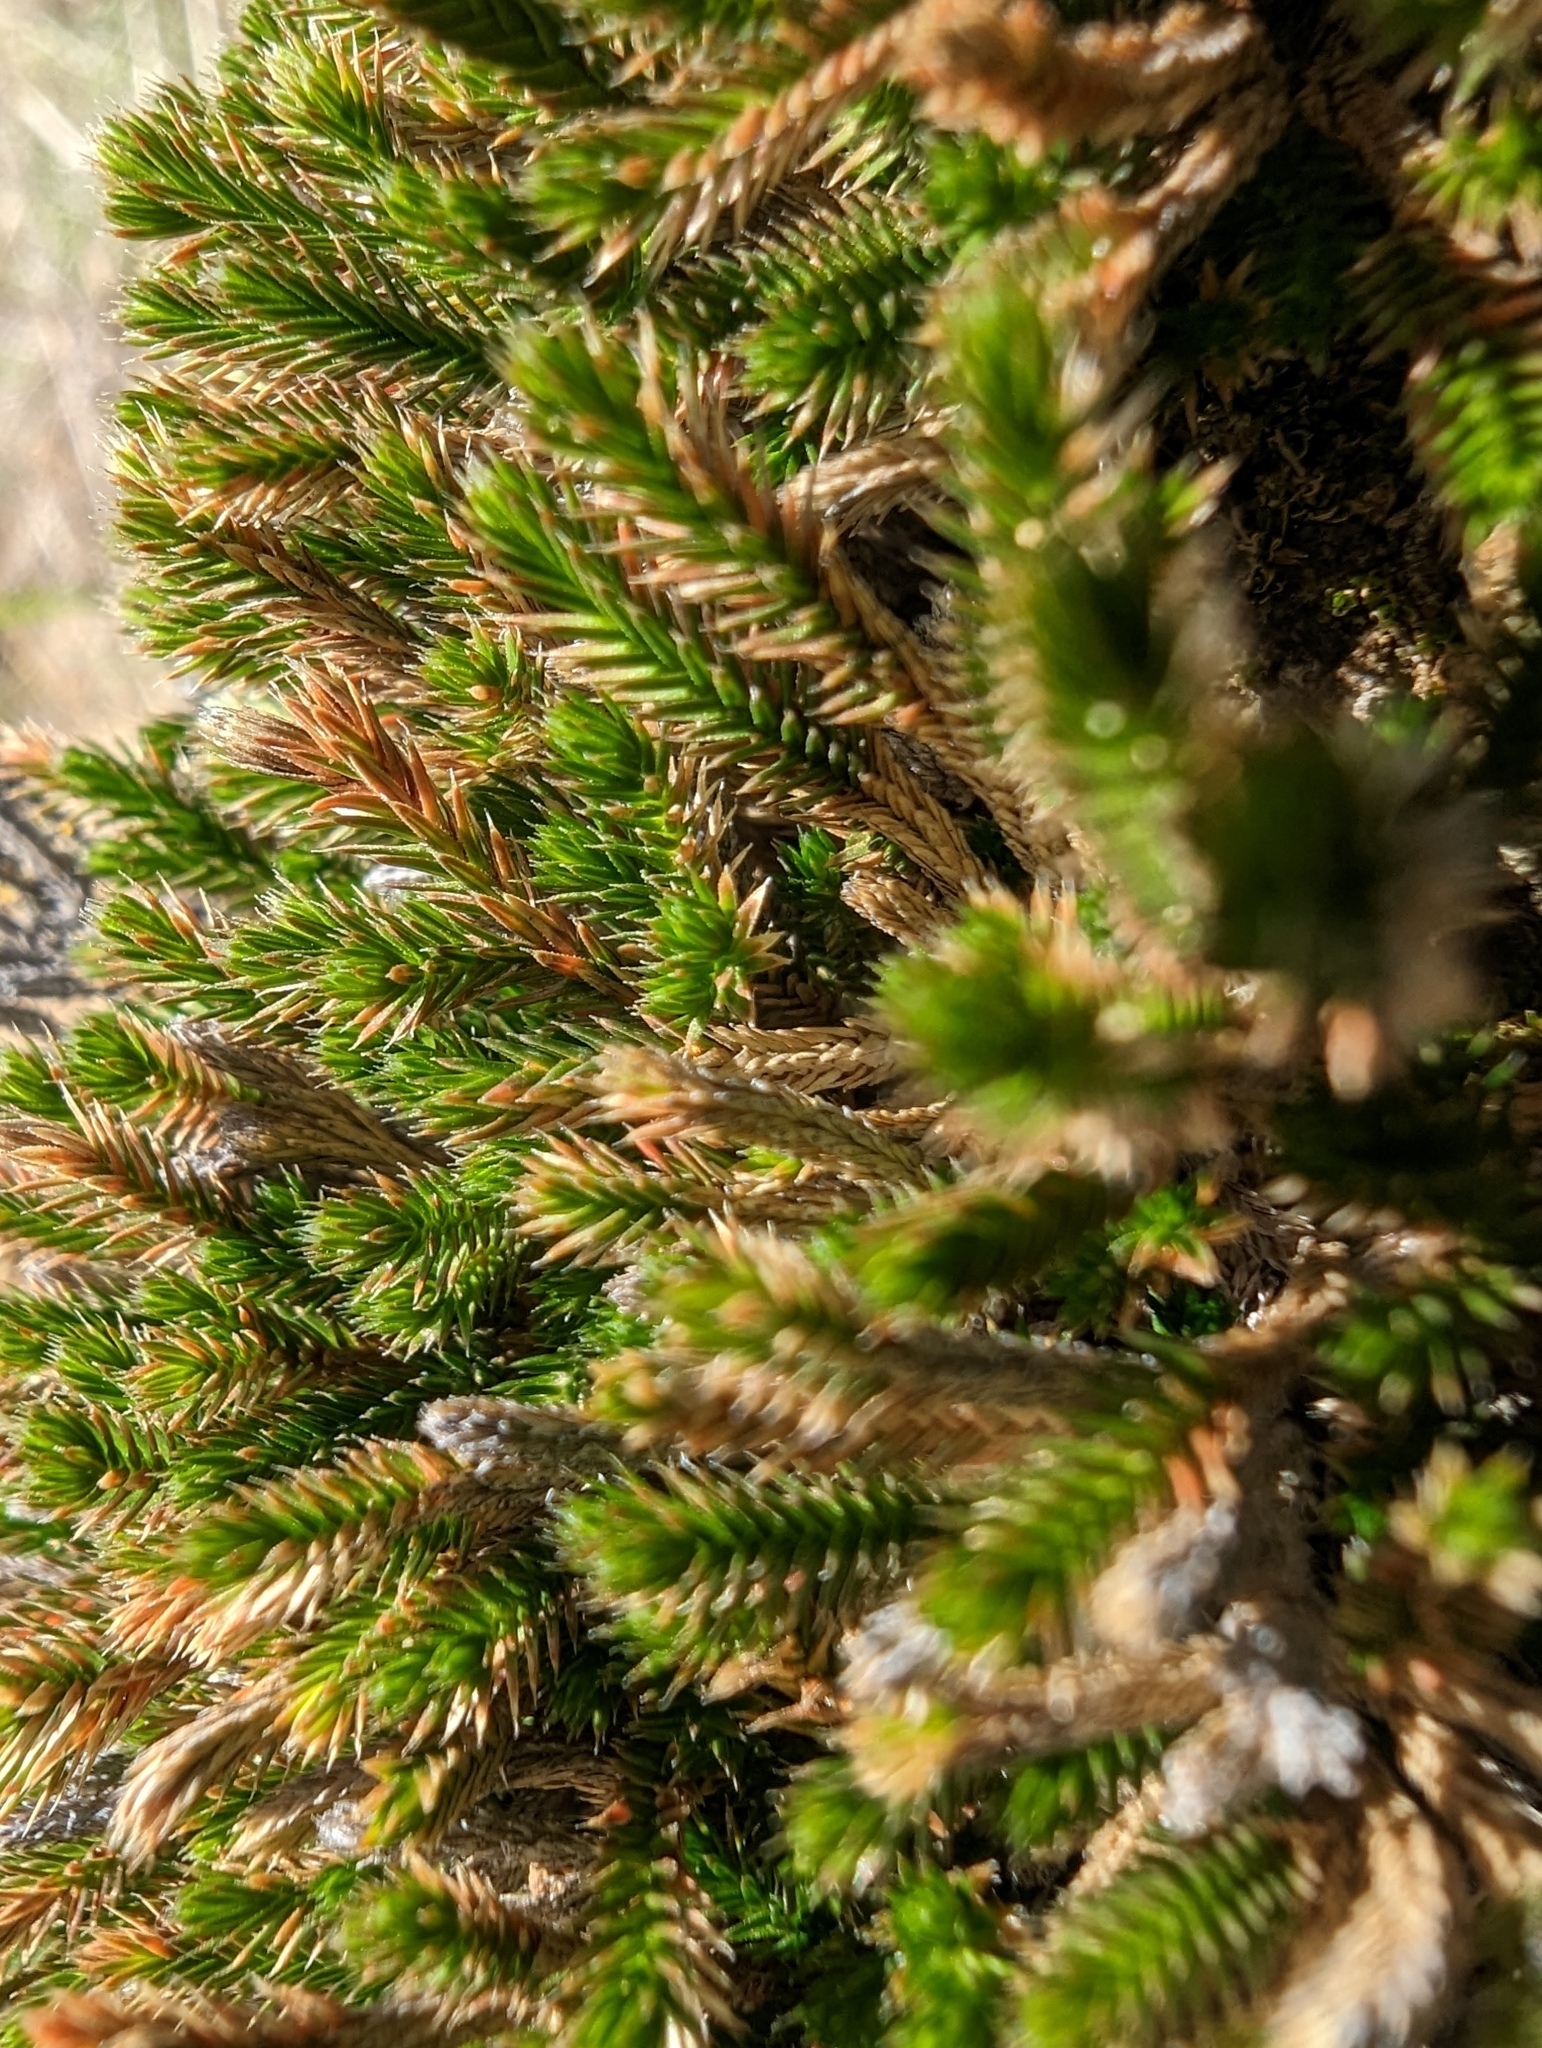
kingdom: Plantae
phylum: Tracheophyta
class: Lycopodiopsida
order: Selaginellales
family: Selaginellaceae
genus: Selaginella
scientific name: Selaginella bigelovii
